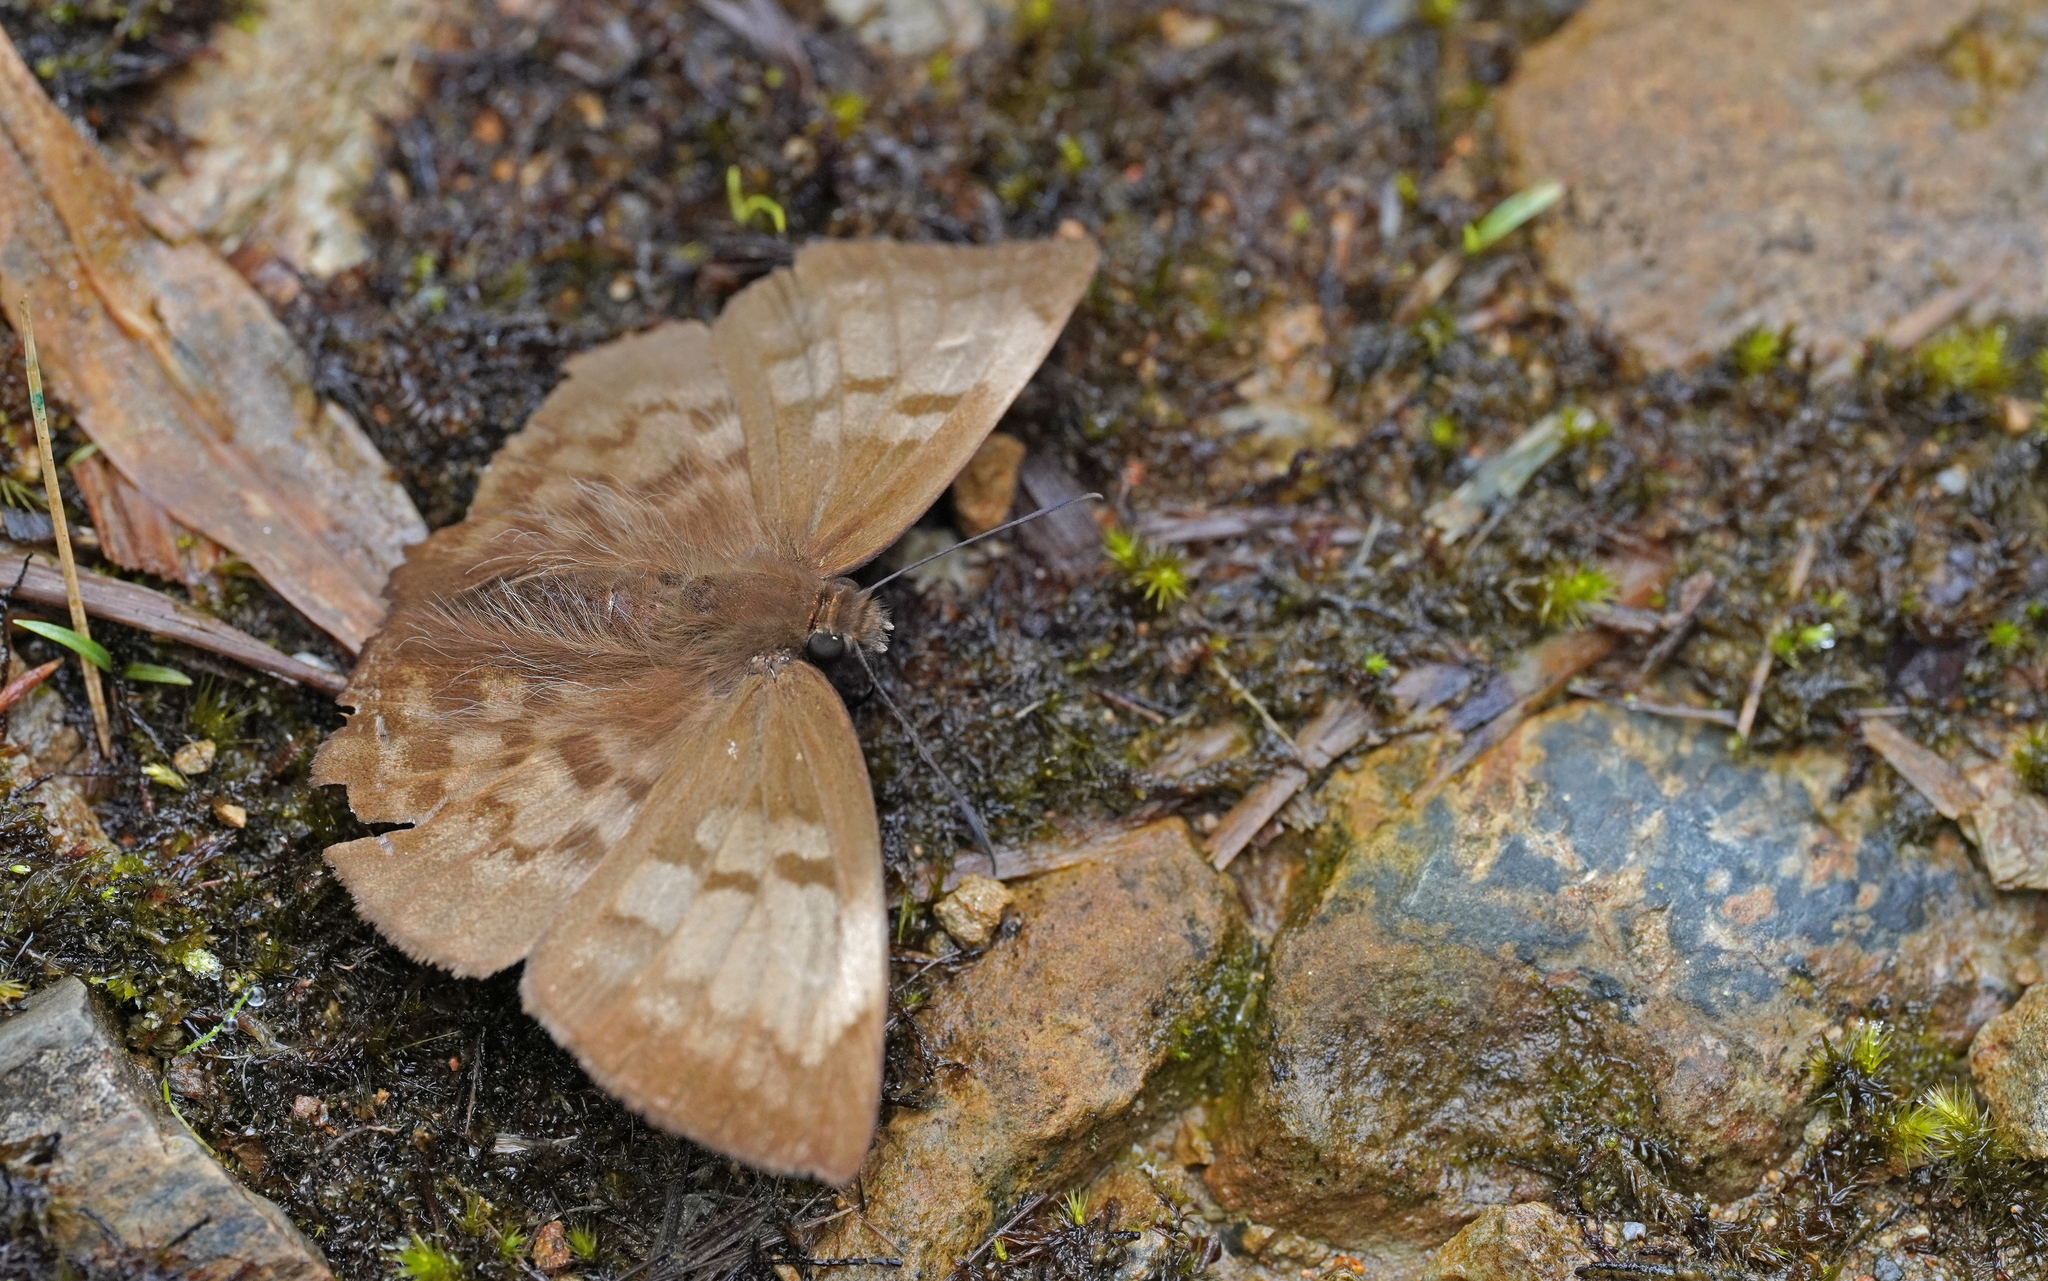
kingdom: Animalia
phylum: Arthropoda
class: Insecta
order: Lepidoptera
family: Hesperiidae
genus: Achlyodes
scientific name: Achlyodes pallida
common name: Pale sicklewing
